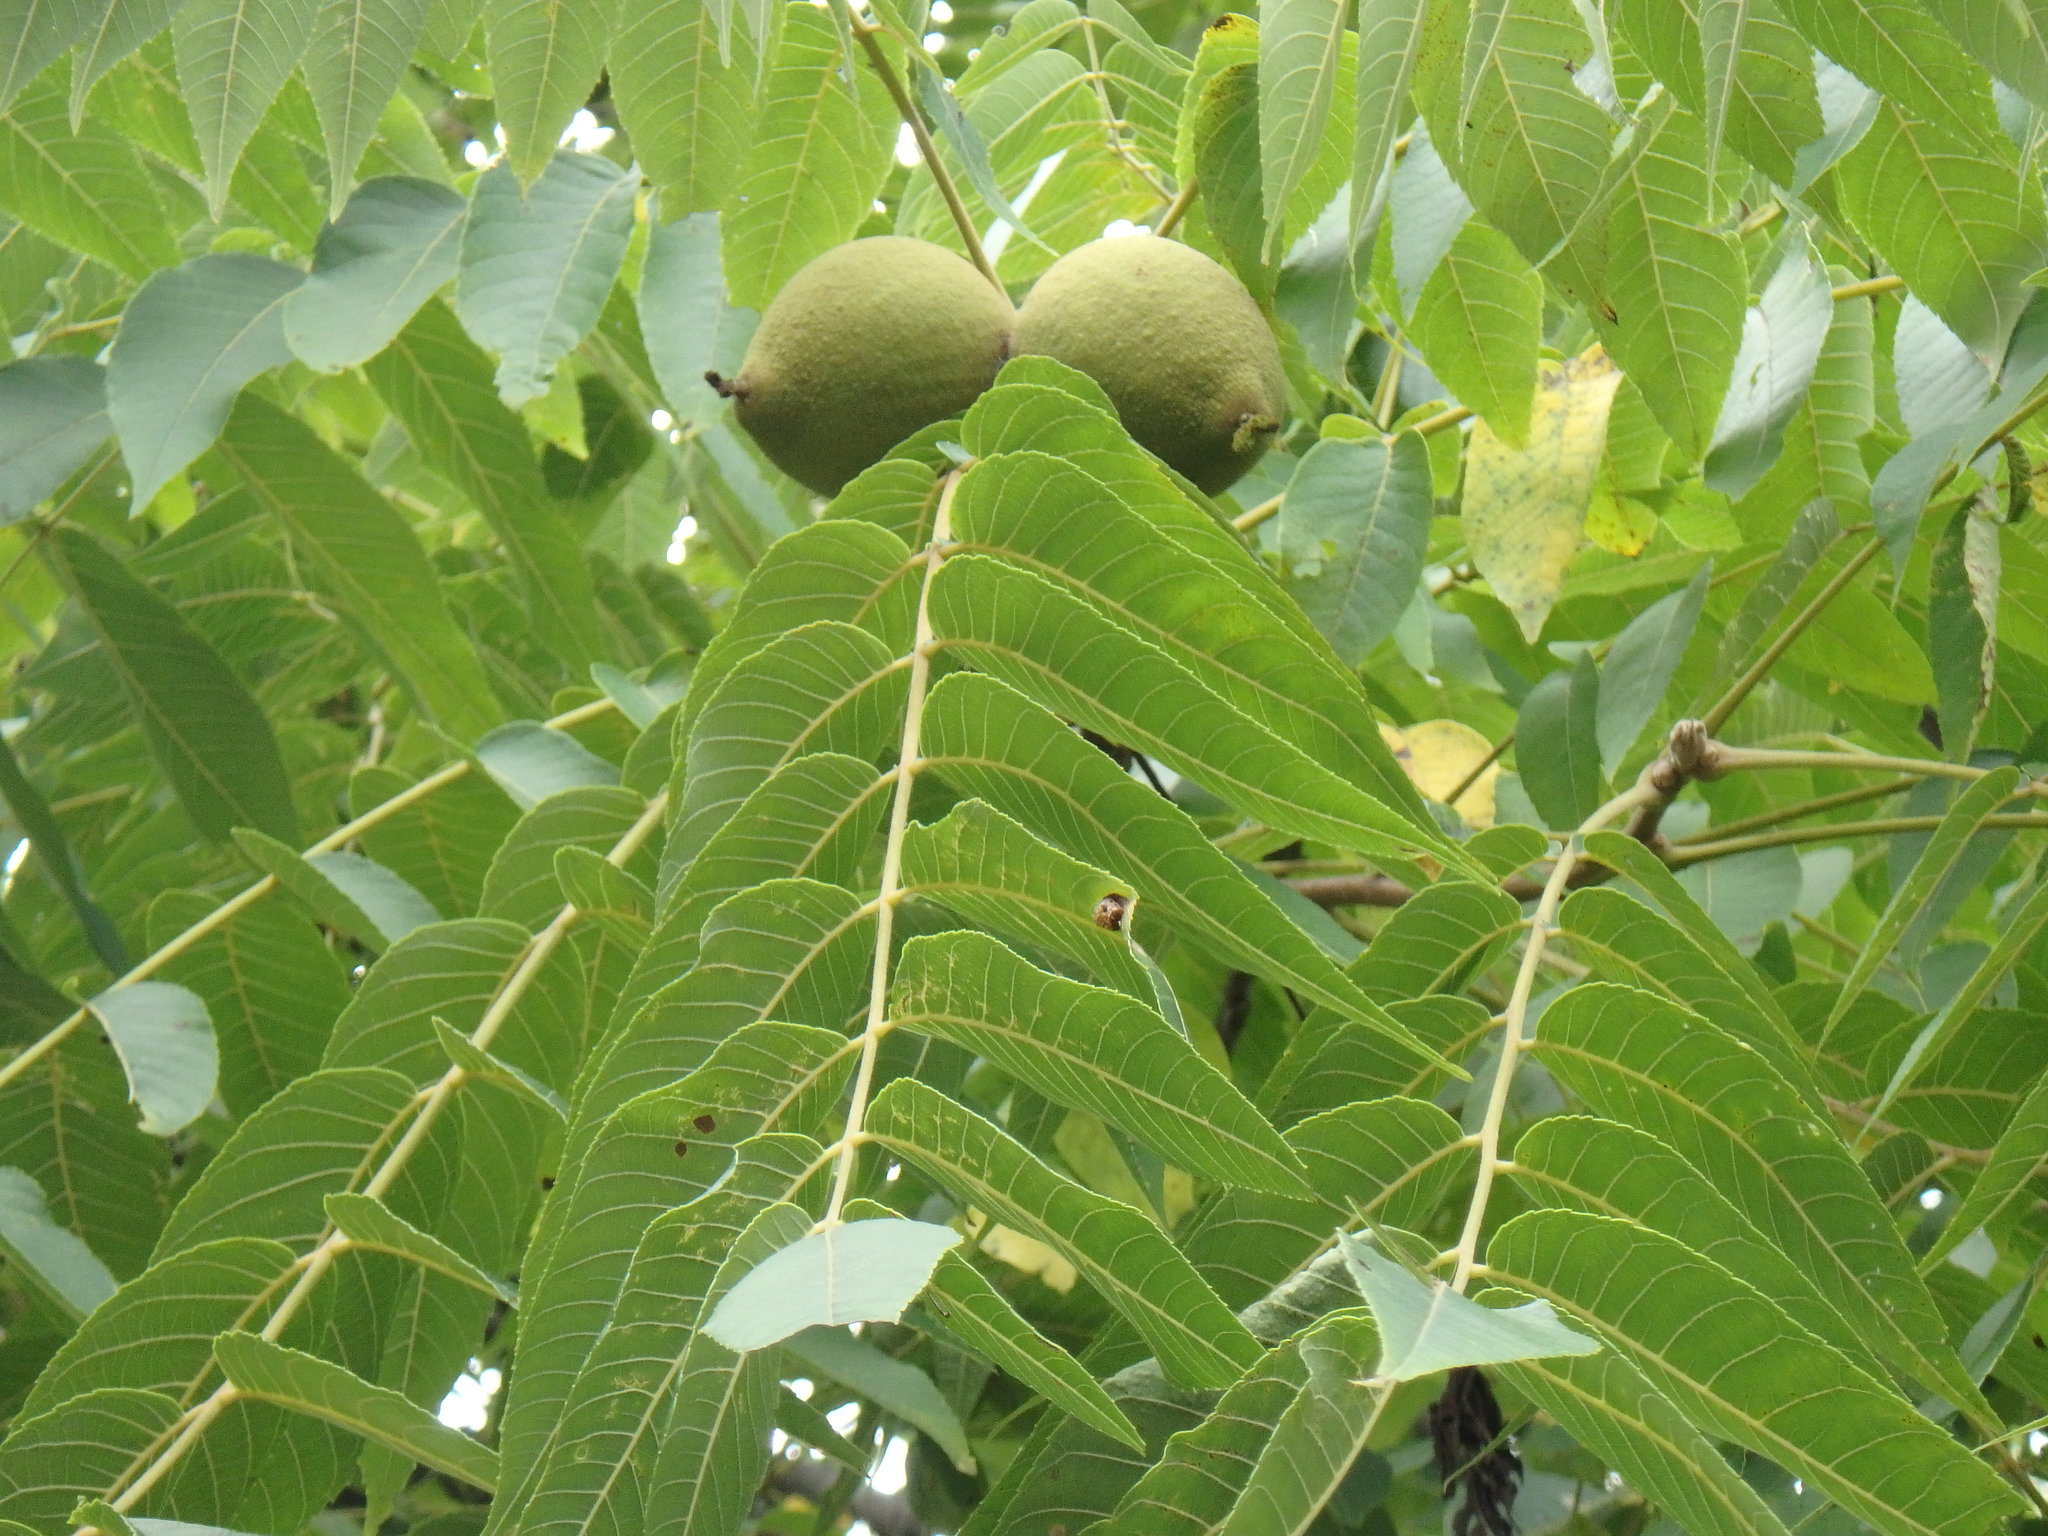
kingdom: Plantae
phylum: Tracheophyta
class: Magnoliopsida
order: Fagales
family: Juglandaceae
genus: Juglans
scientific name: Juglans nigra
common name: Black walnut
